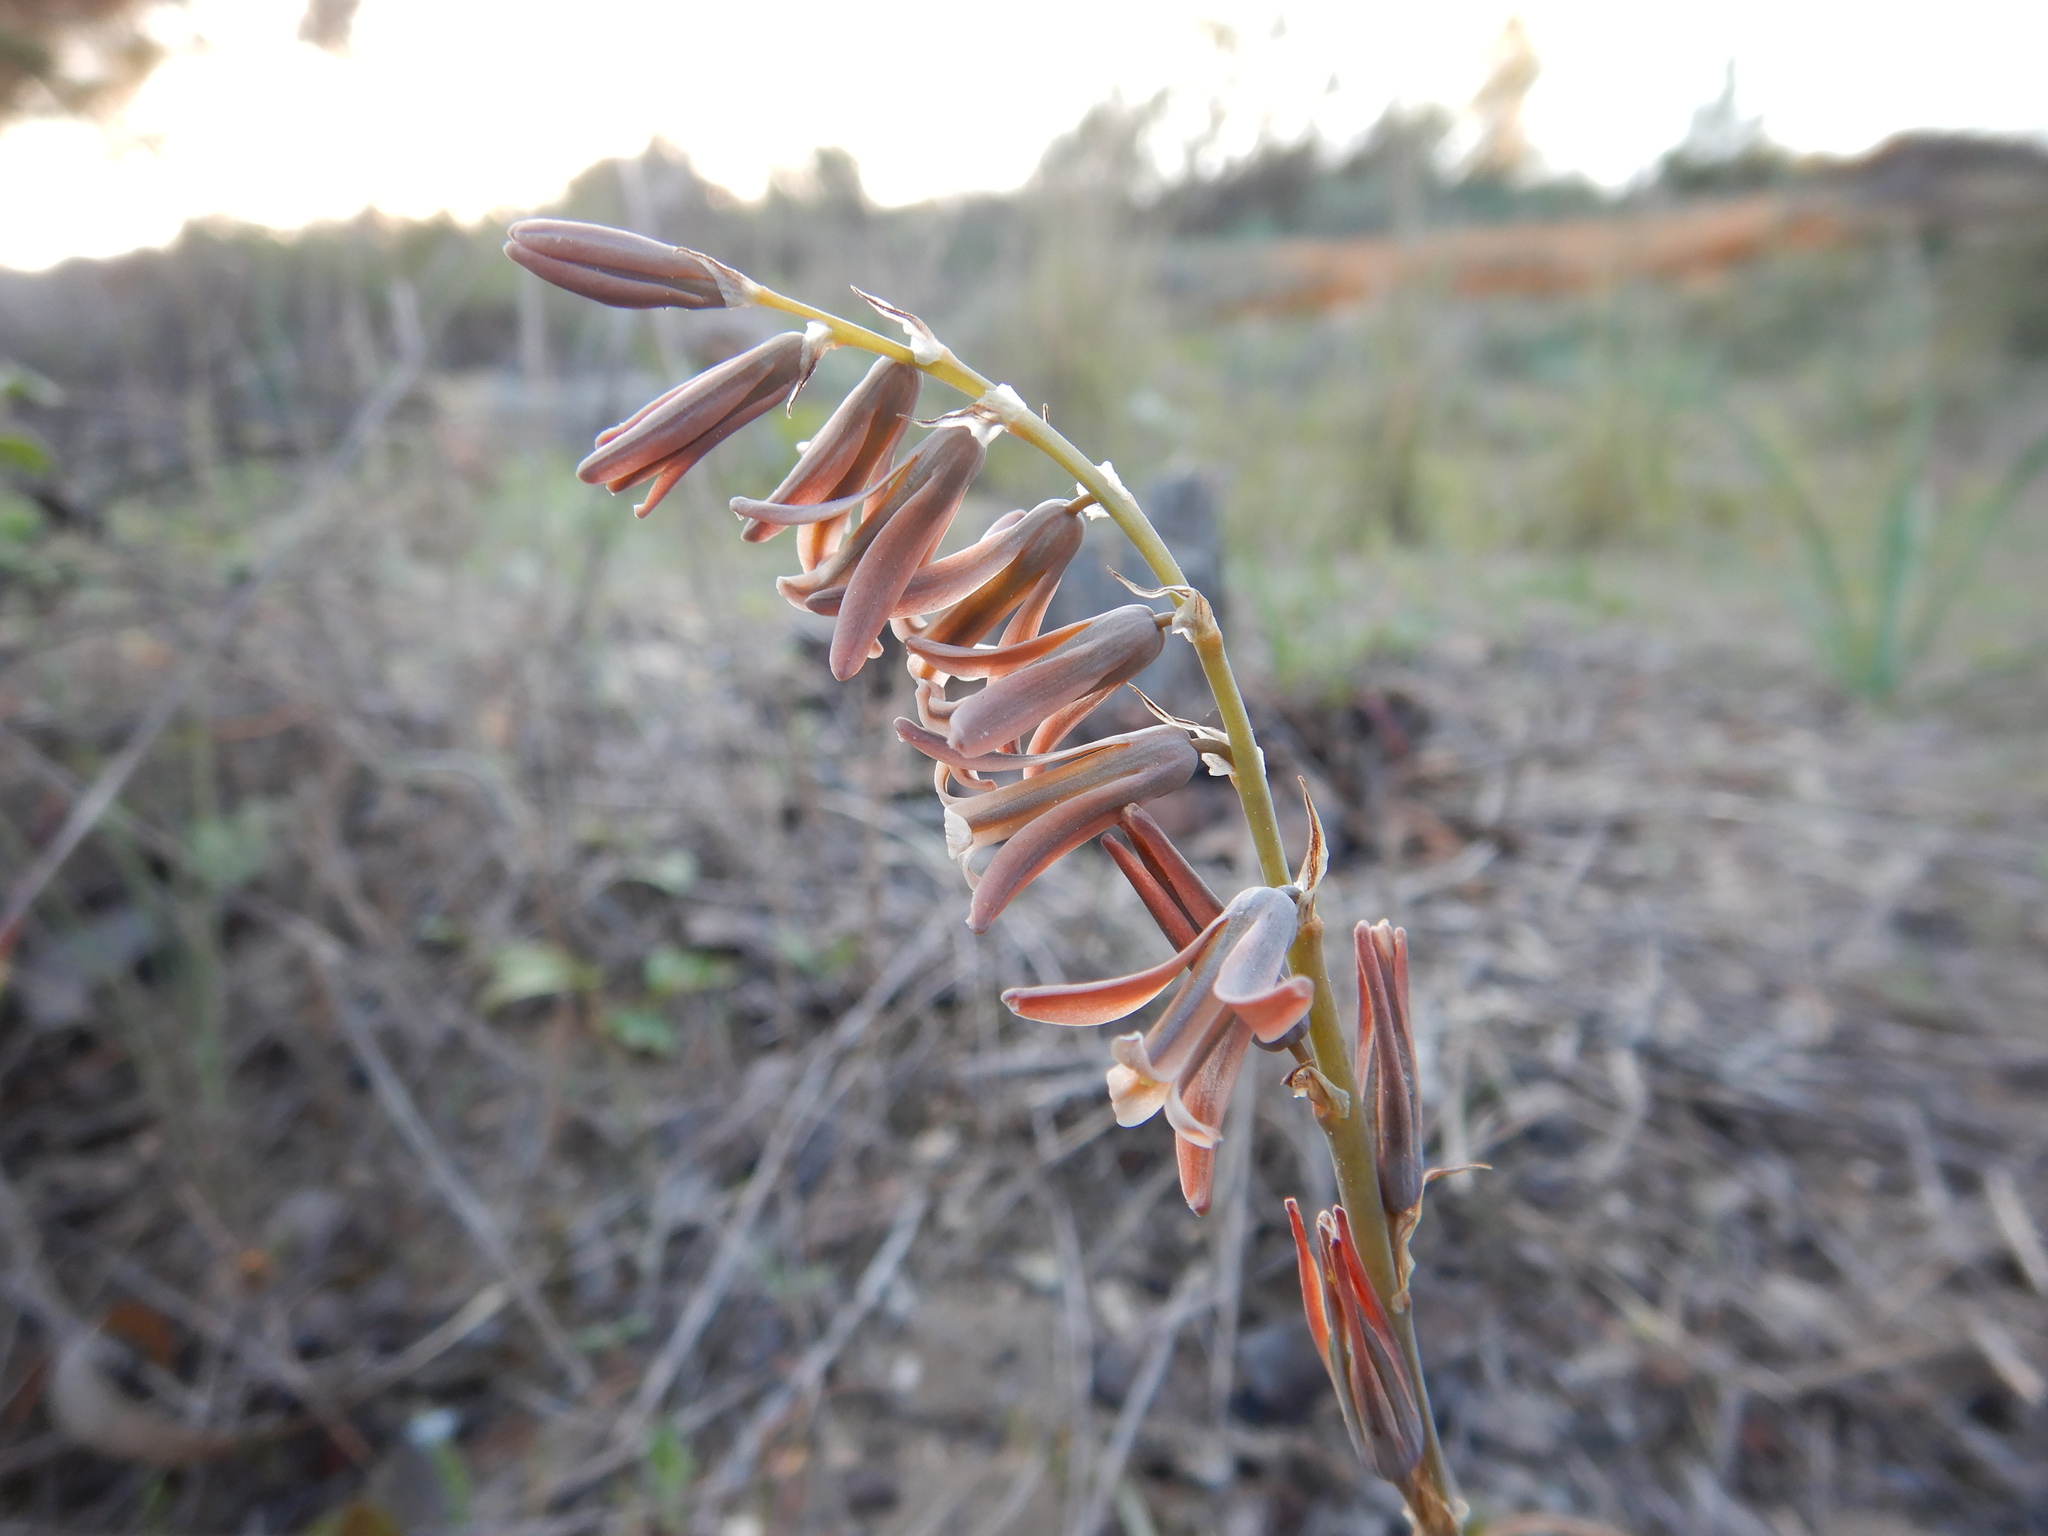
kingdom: Plantae
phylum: Tracheophyta
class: Liliopsida
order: Asparagales
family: Asparagaceae
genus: Dipcadi
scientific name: Dipcadi serotinum
